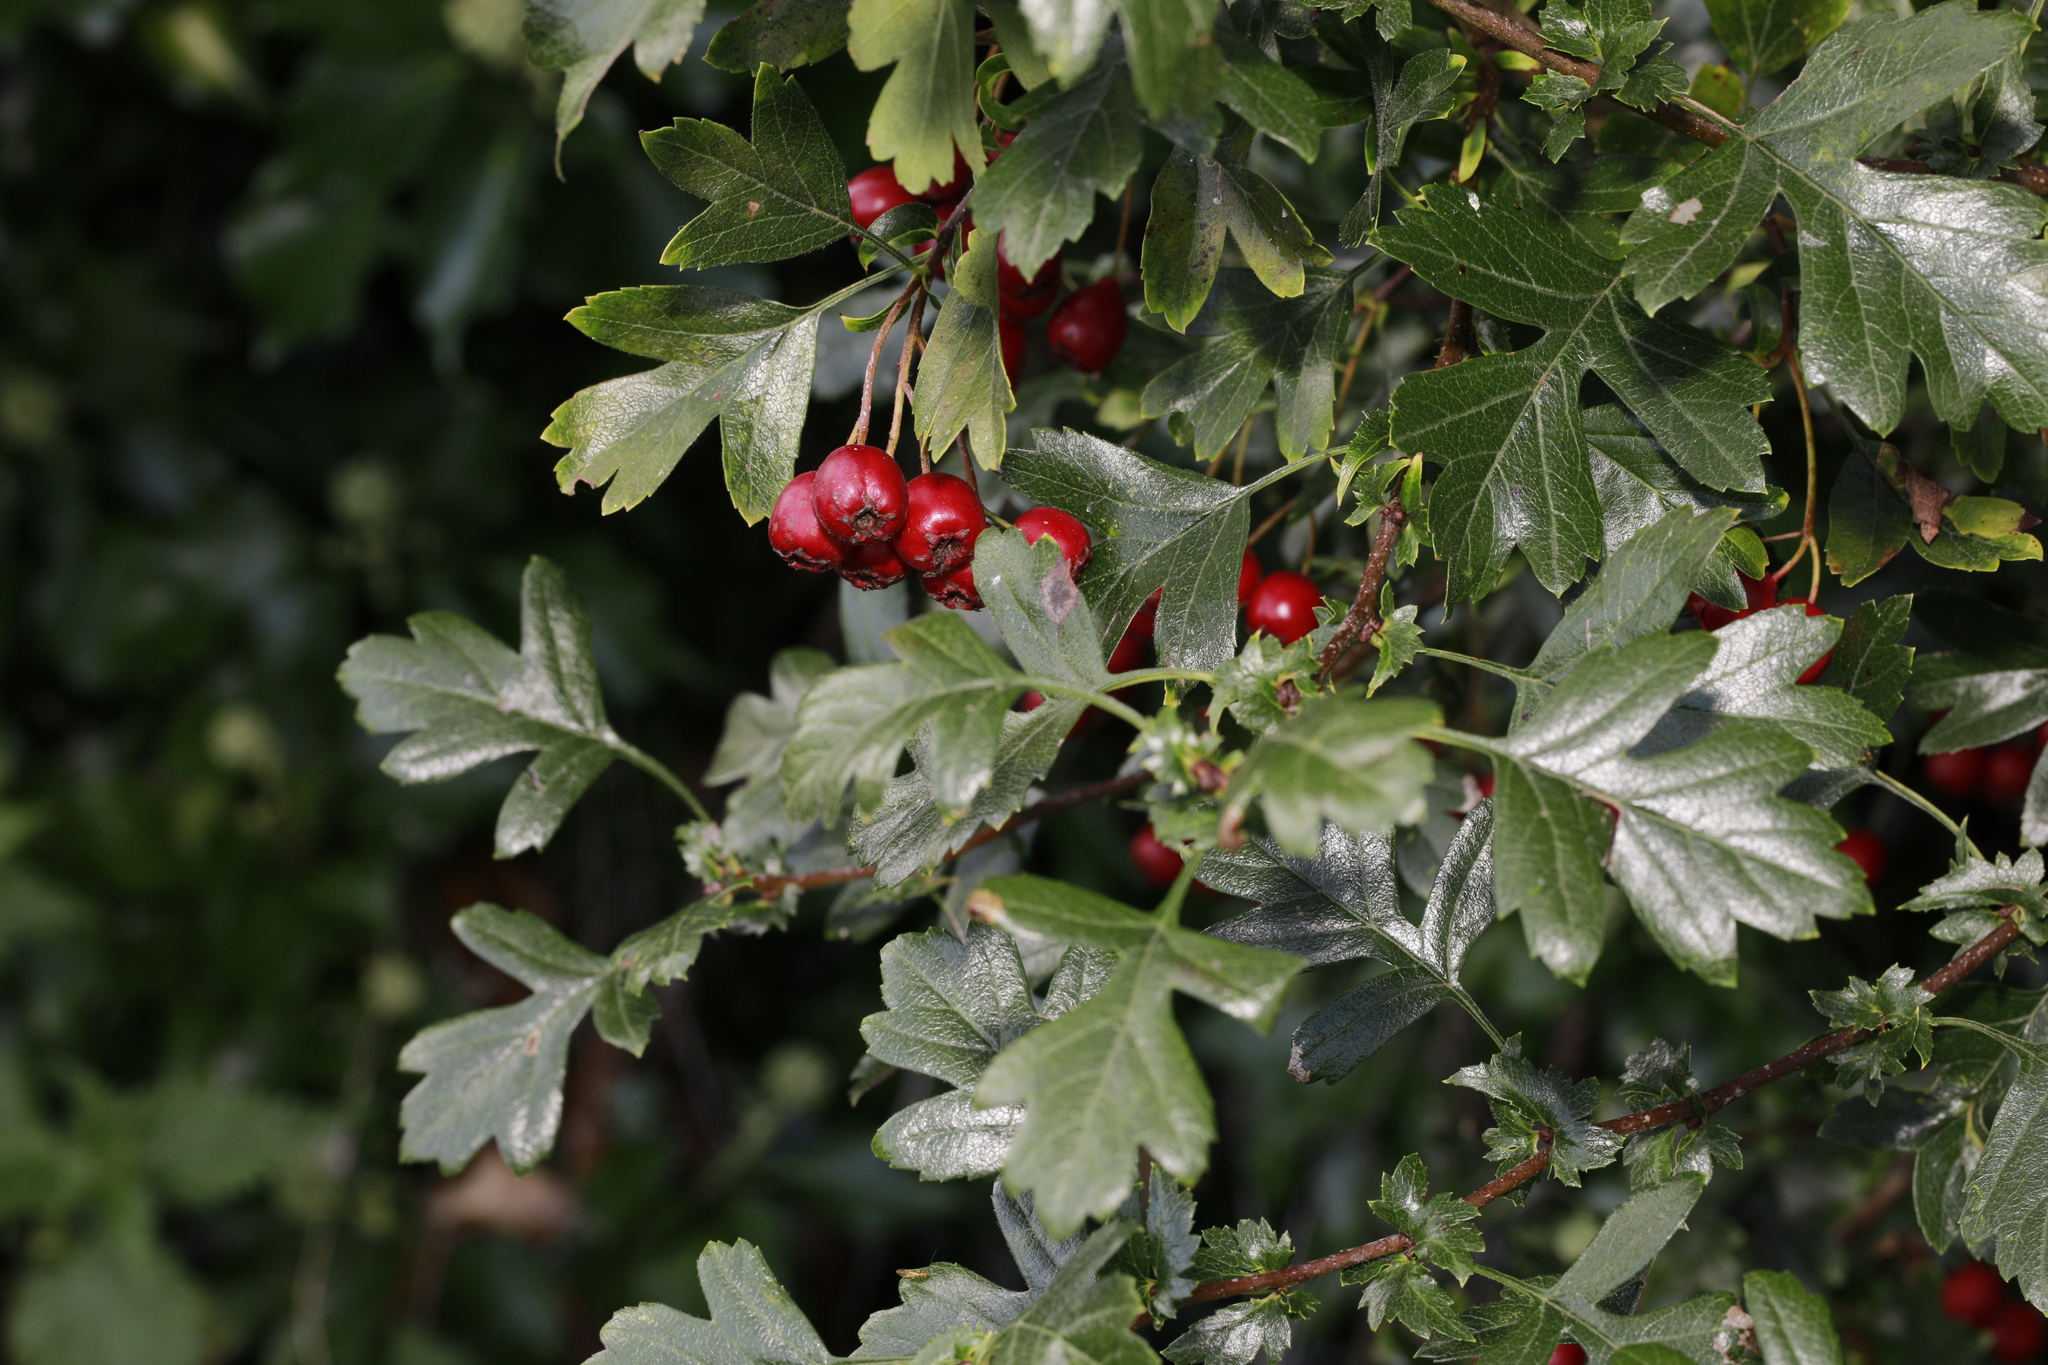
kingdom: Plantae
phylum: Tracheophyta
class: Magnoliopsida
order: Rosales
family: Rosaceae
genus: Crataegus
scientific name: Crataegus monogyna
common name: Hawthorn
